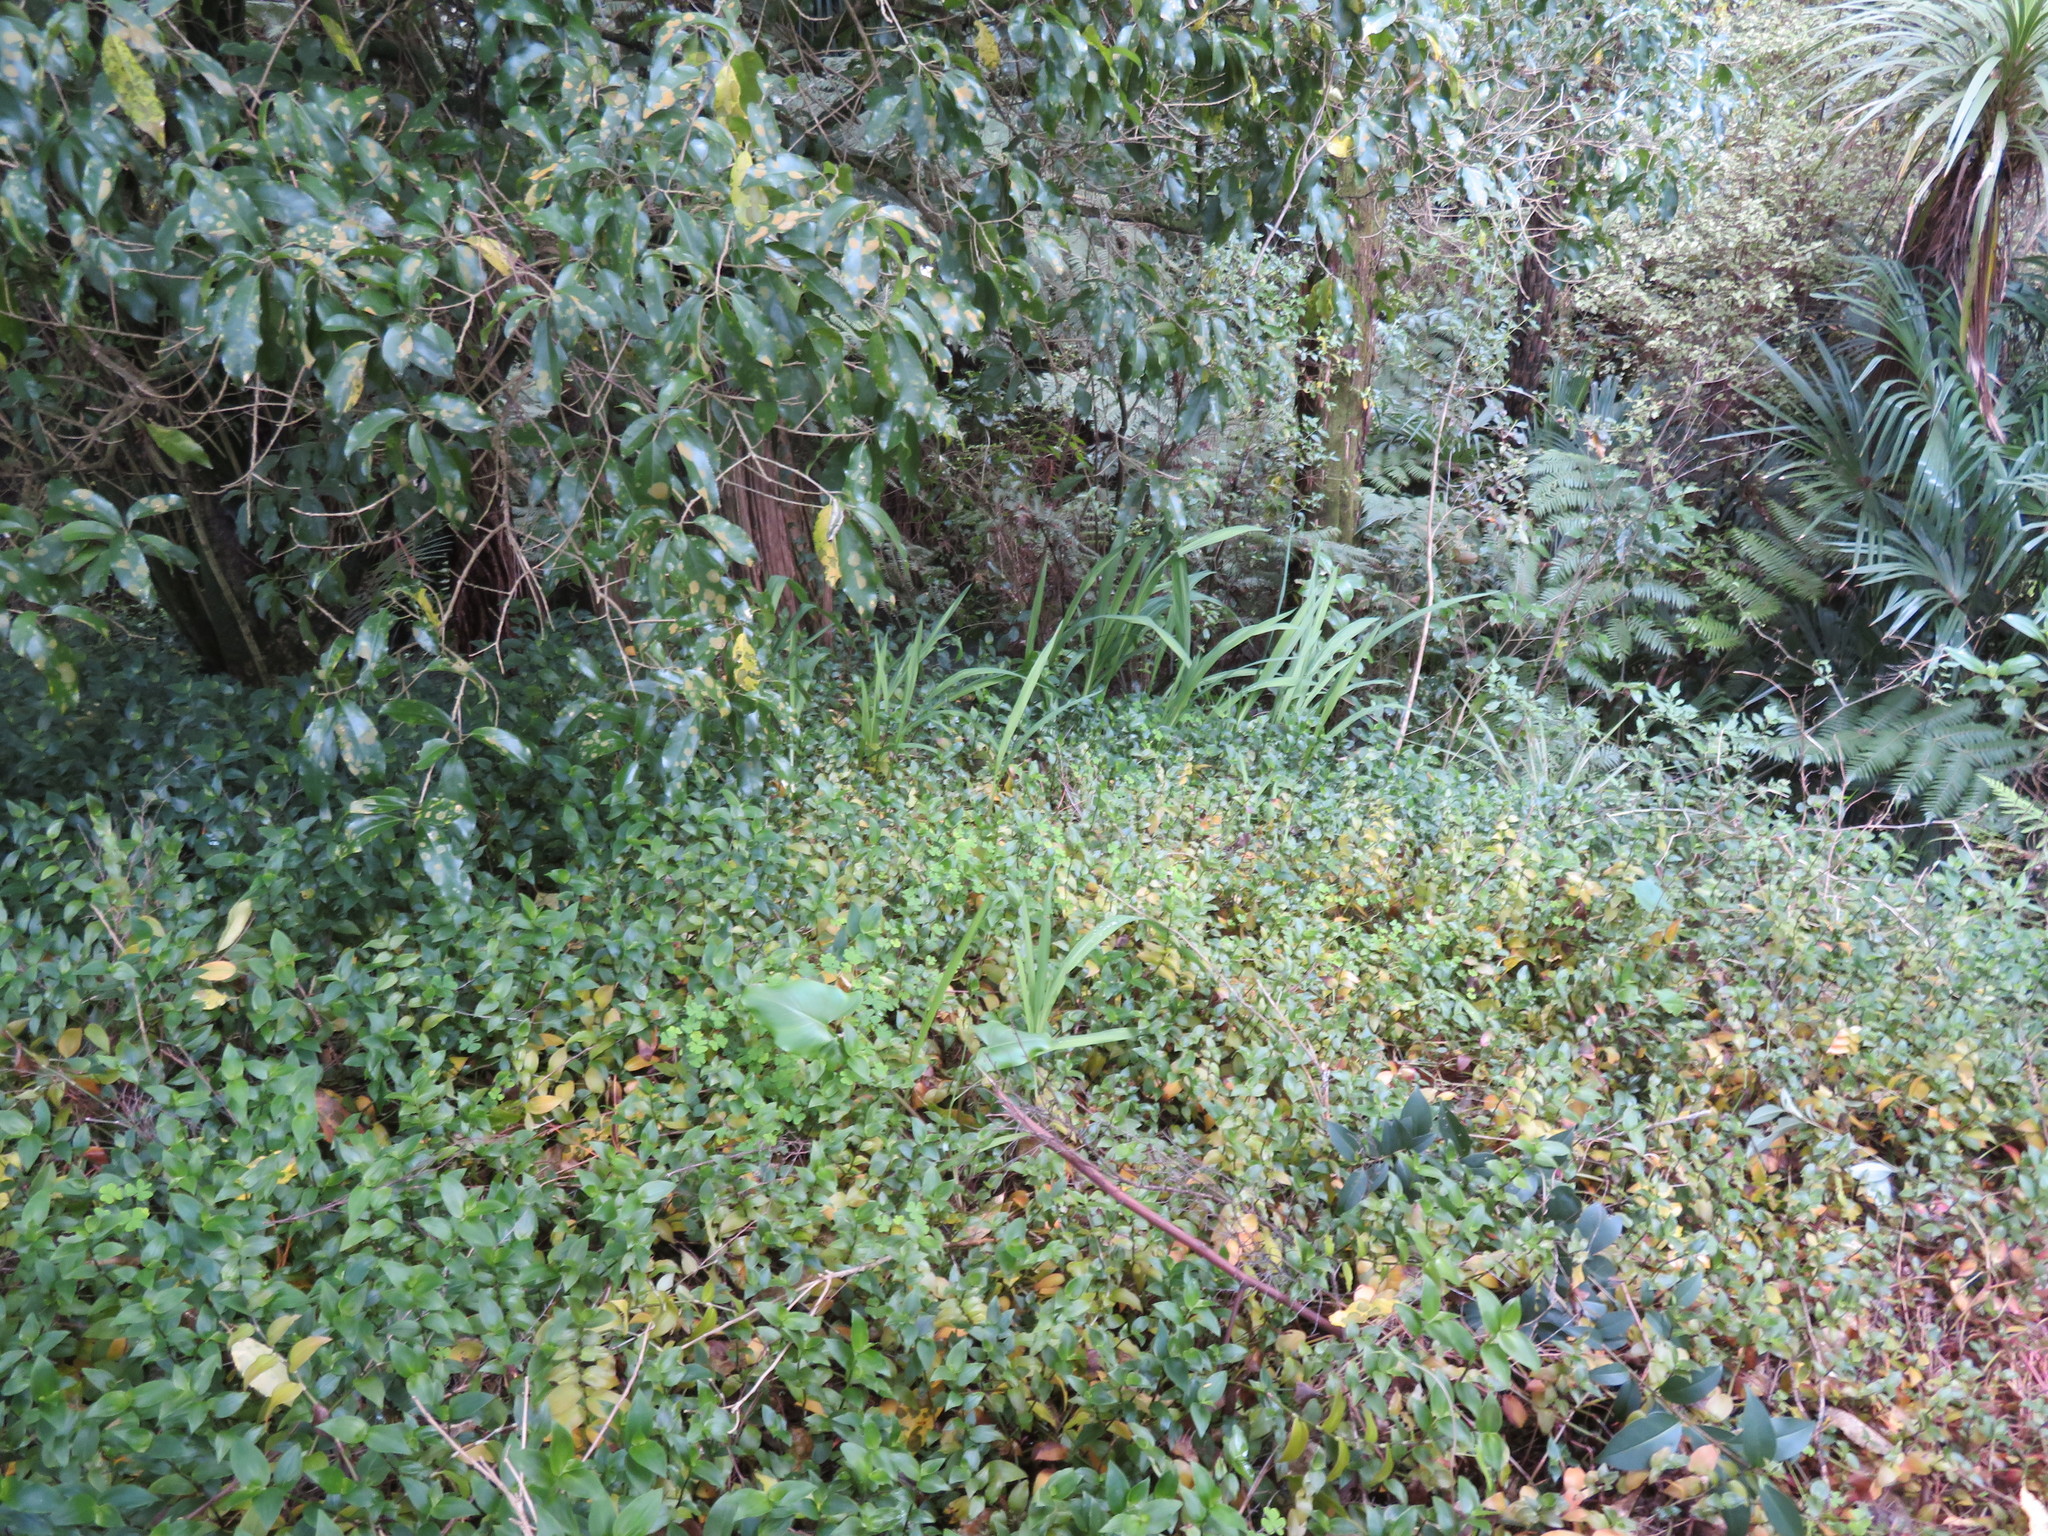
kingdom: Plantae
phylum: Tracheophyta
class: Liliopsida
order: Commelinales
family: Commelinaceae
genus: Tradescantia
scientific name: Tradescantia fluminensis
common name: Wandering-jew
